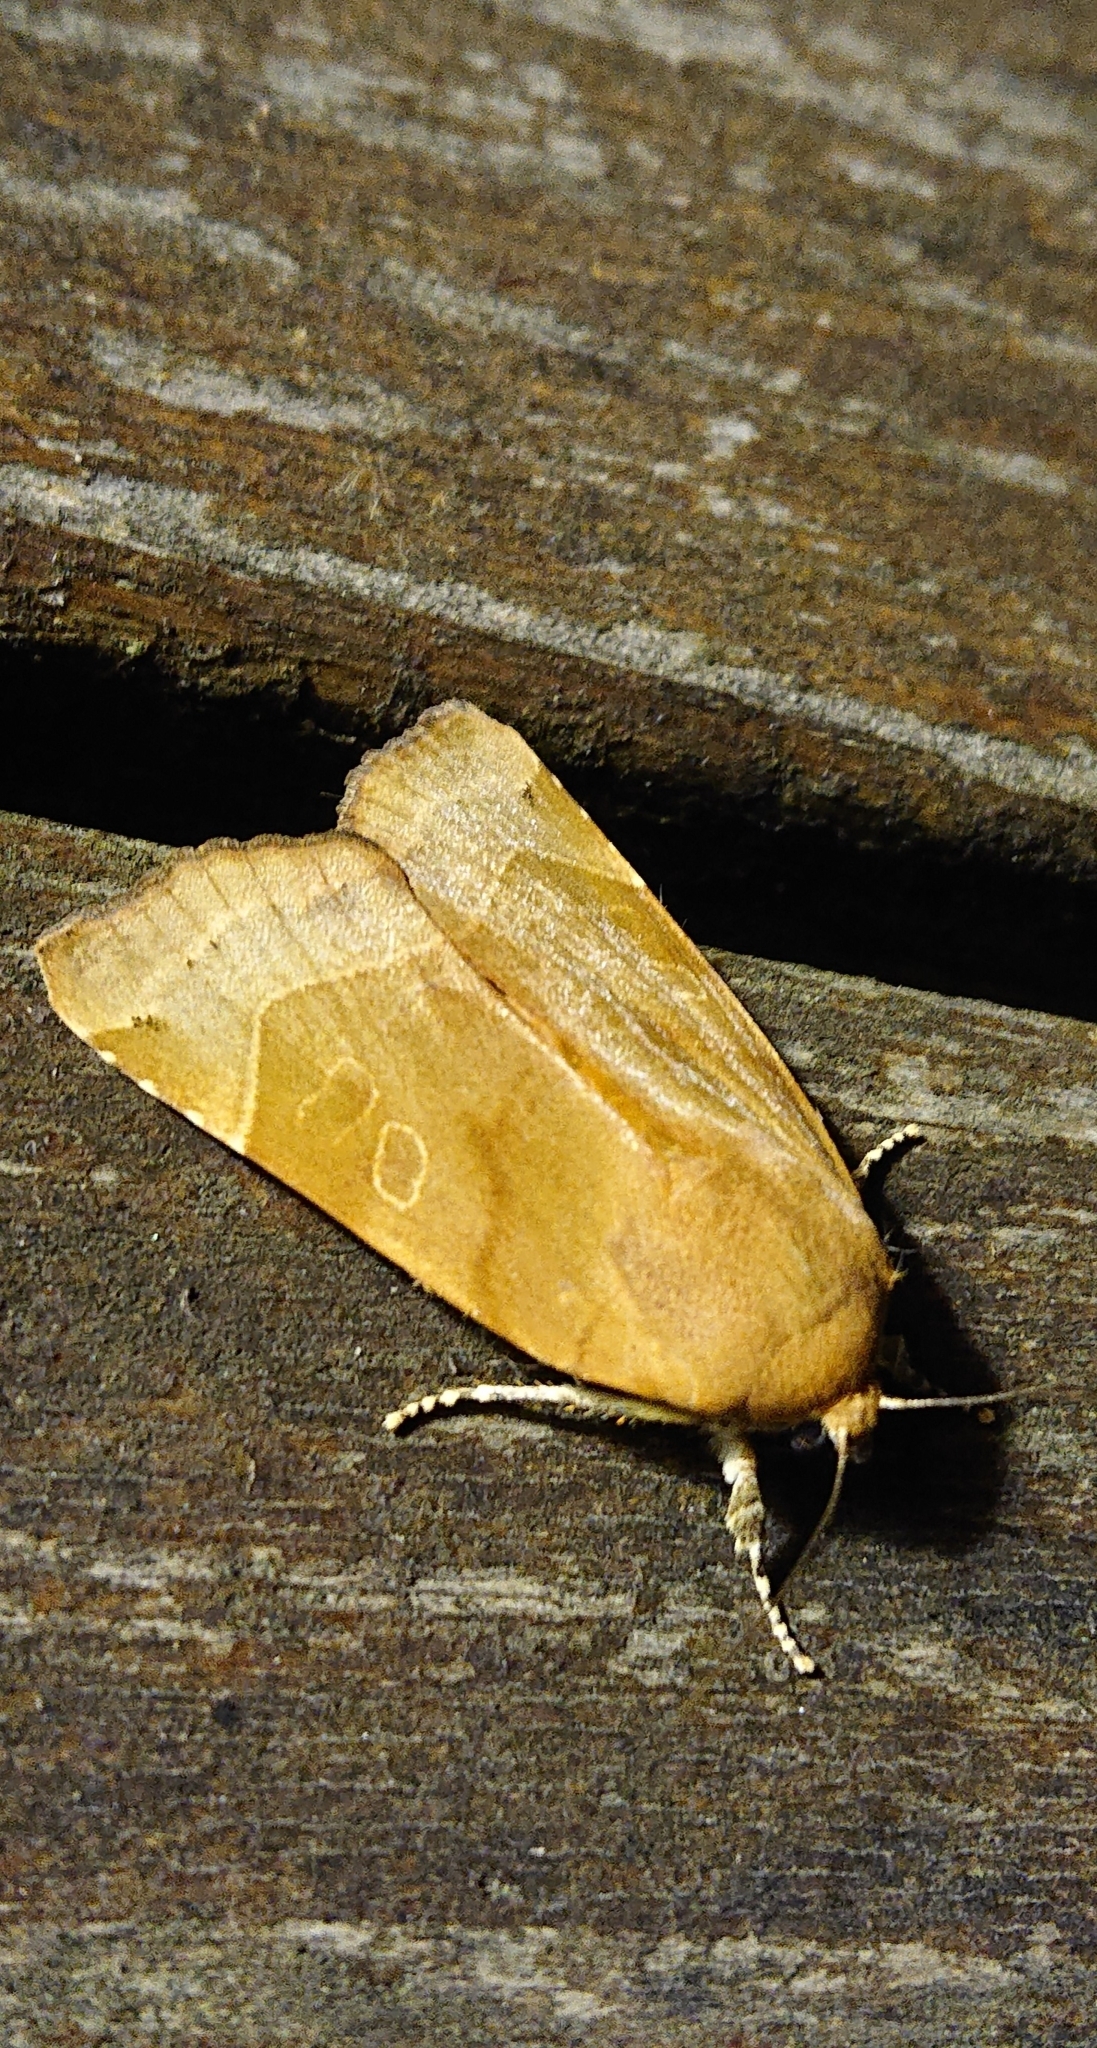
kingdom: Animalia
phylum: Arthropoda
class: Insecta
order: Lepidoptera
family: Noctuidae
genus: Noctua
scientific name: Noctua fimbriata
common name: Broad-bordered yellow underwing
